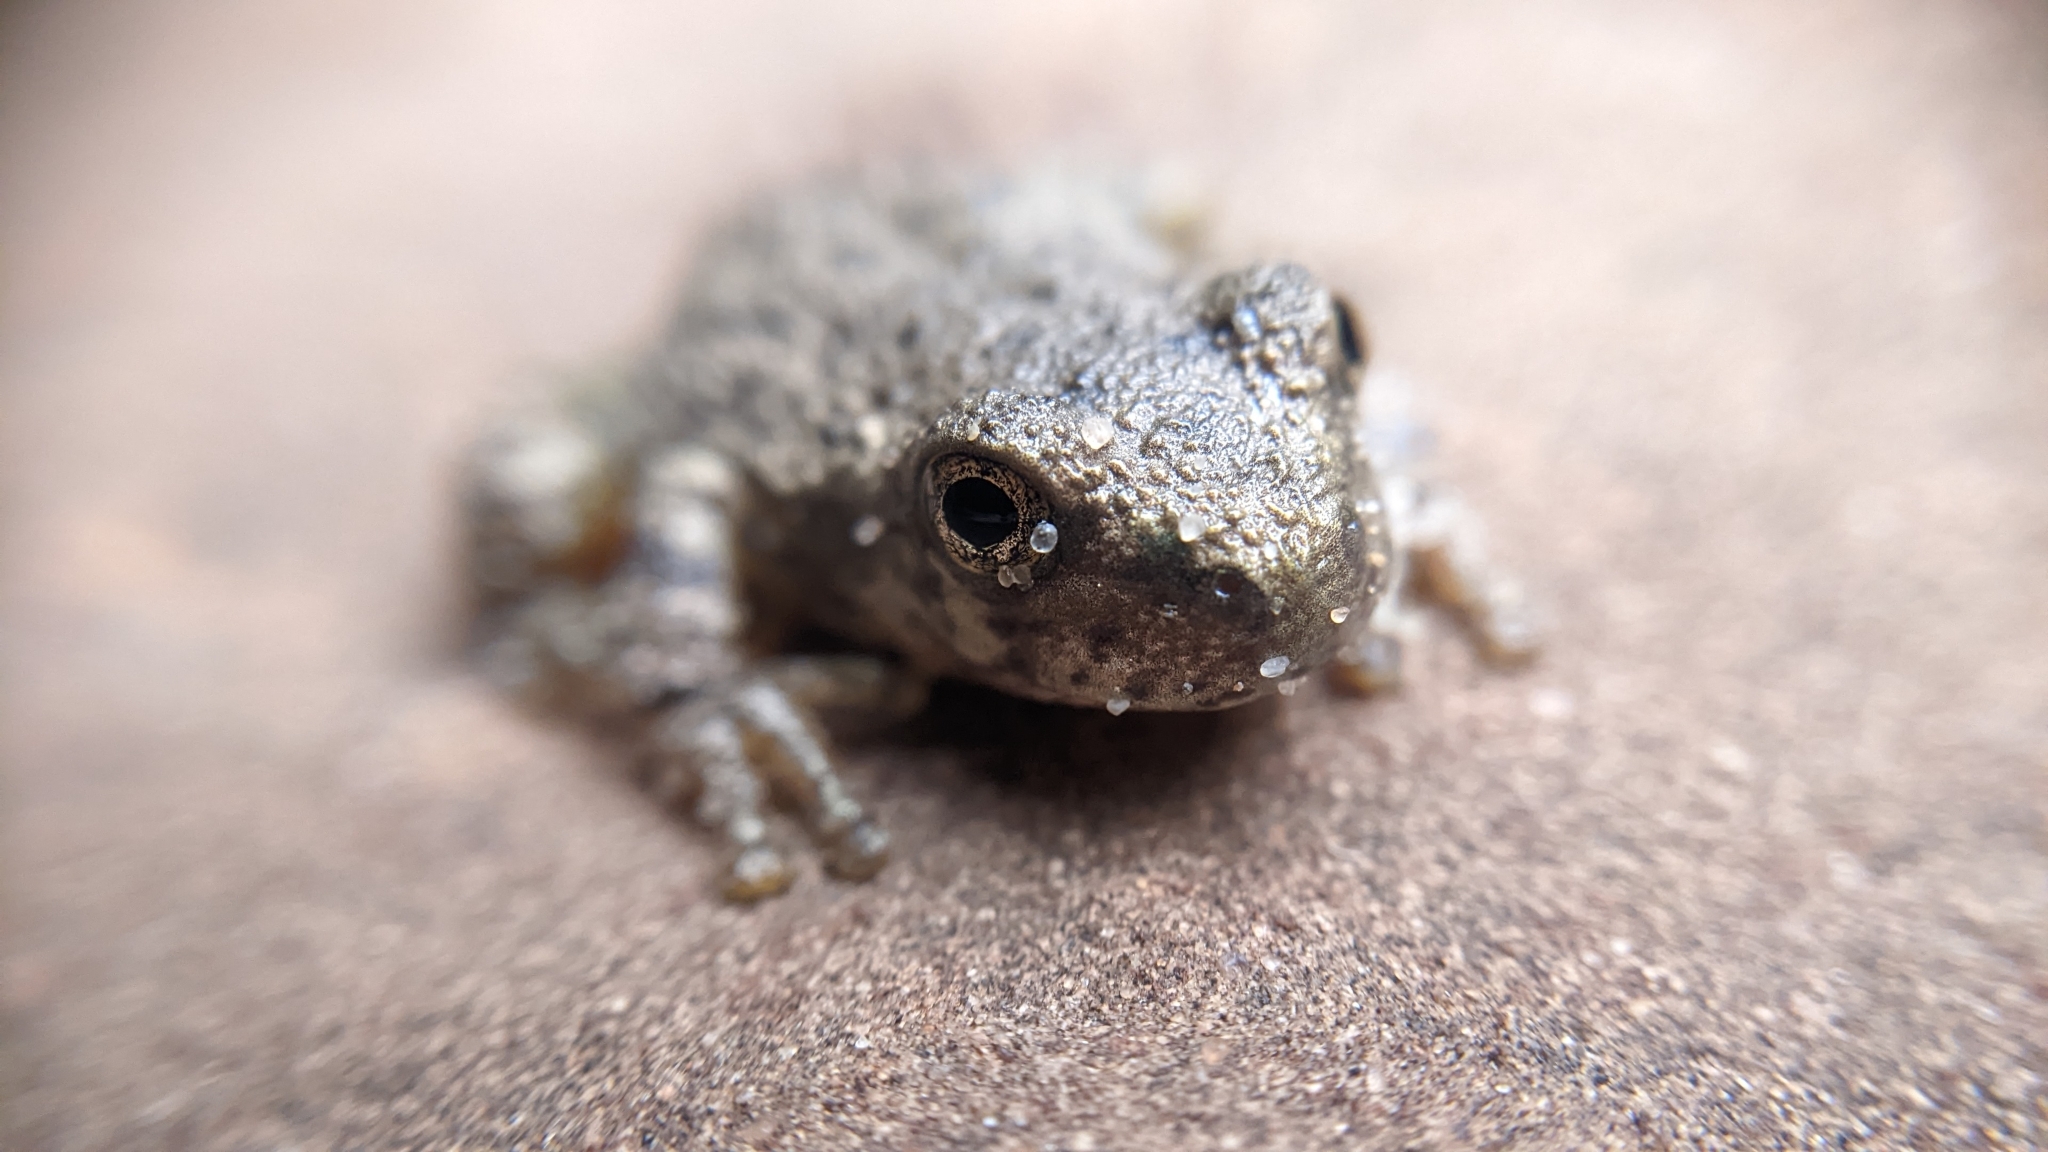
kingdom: Animalia
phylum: Chordata
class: Amphibia
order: Anura
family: Hylidae
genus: Dryophytes
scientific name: Dryophytes arenicolor
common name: Canyon treefrog
